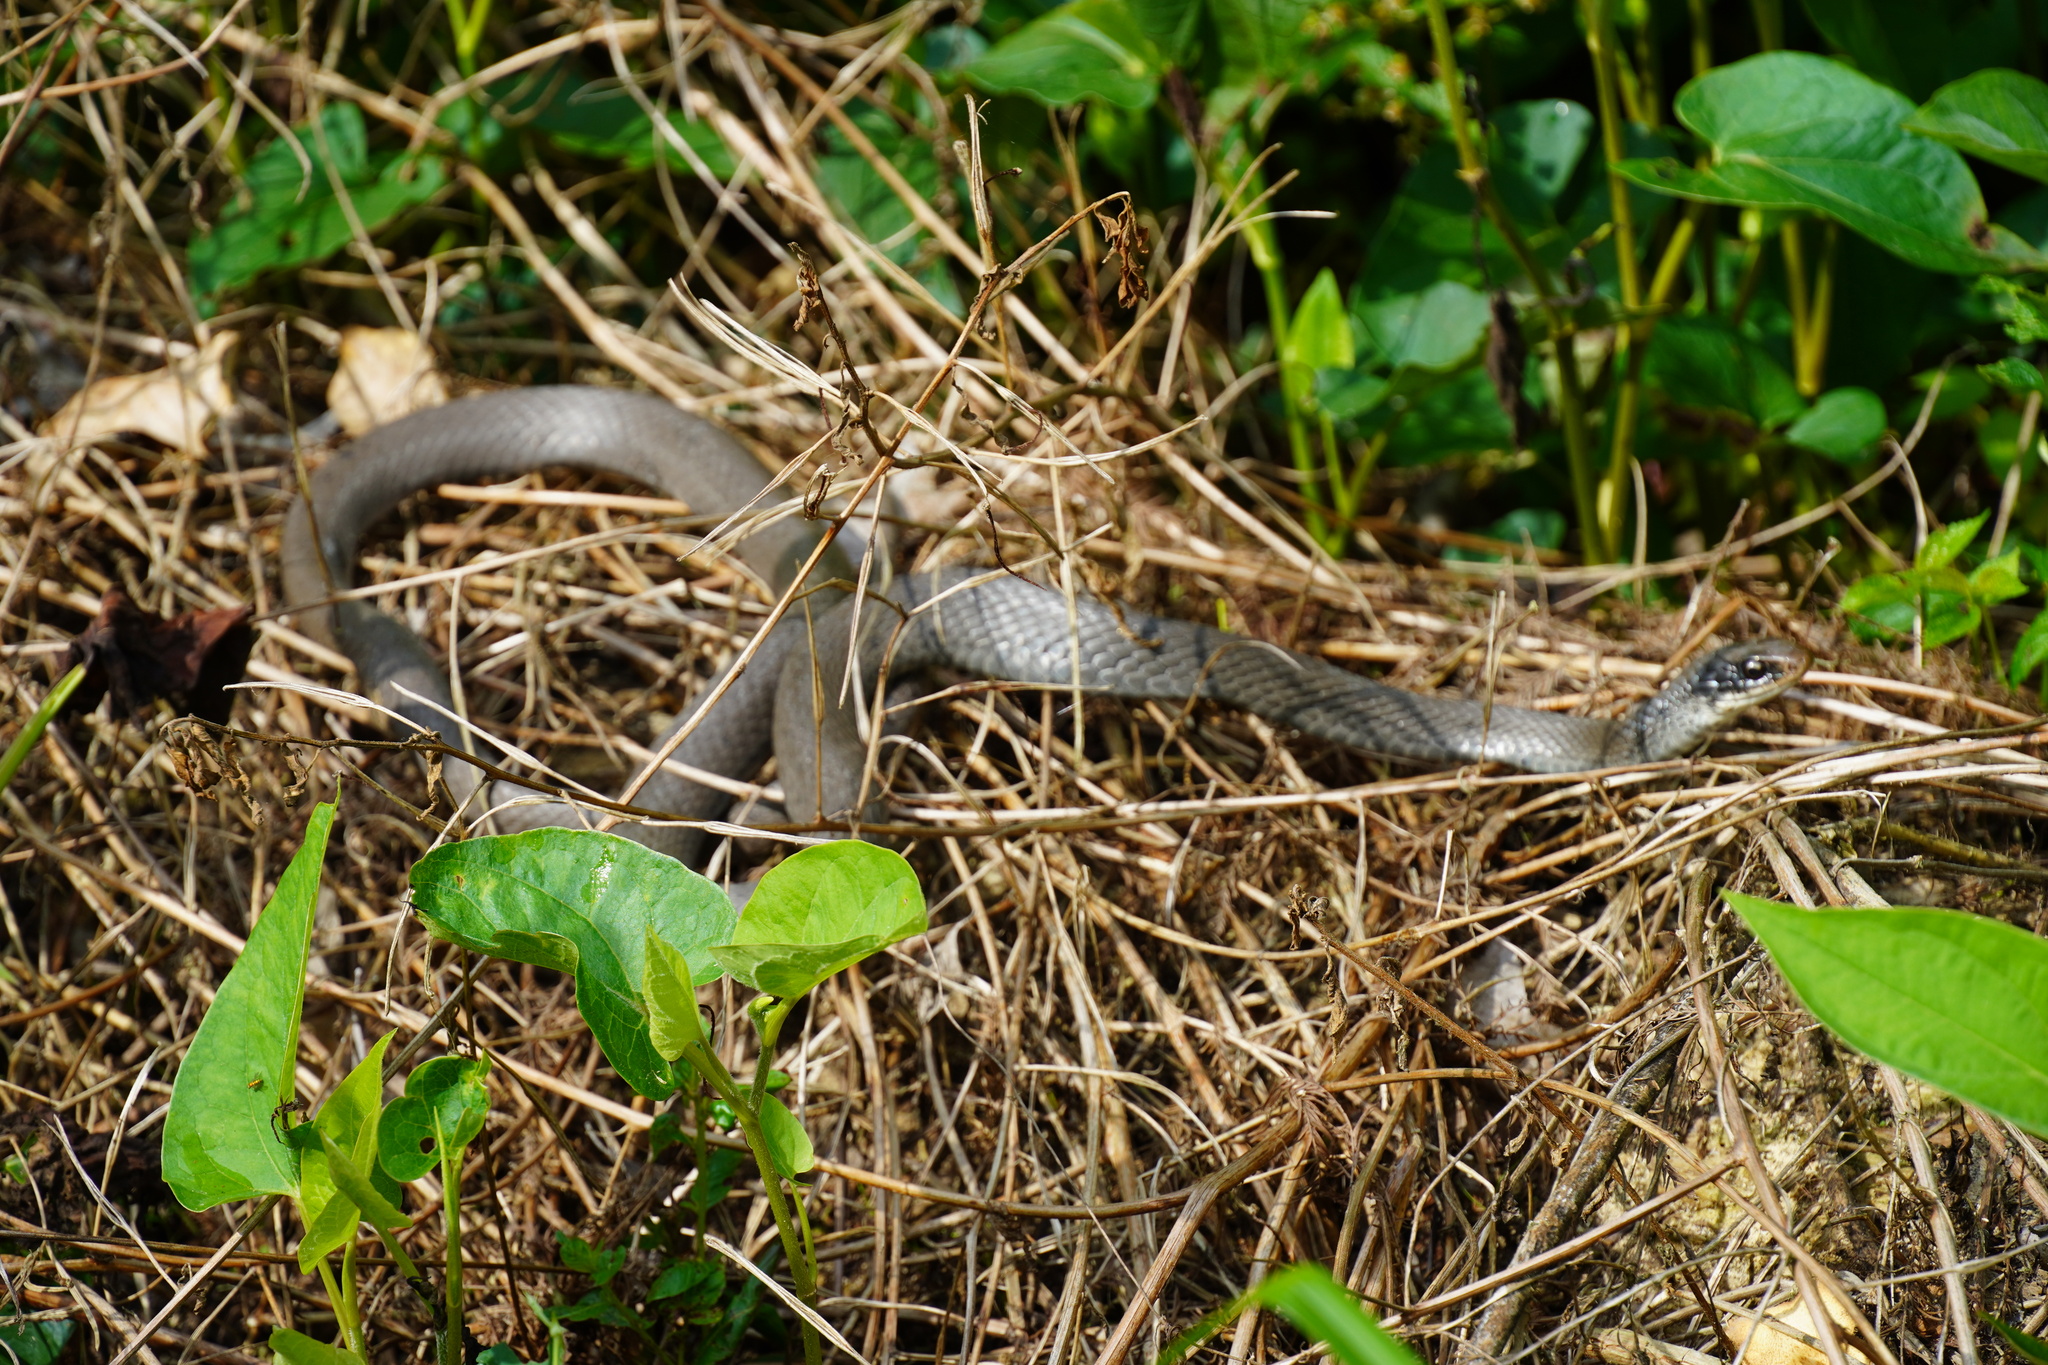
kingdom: Animalia
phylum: Chordata
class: Squamata
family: Colubridae
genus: Coluber
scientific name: Coluber constrictor
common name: Eastern racer
